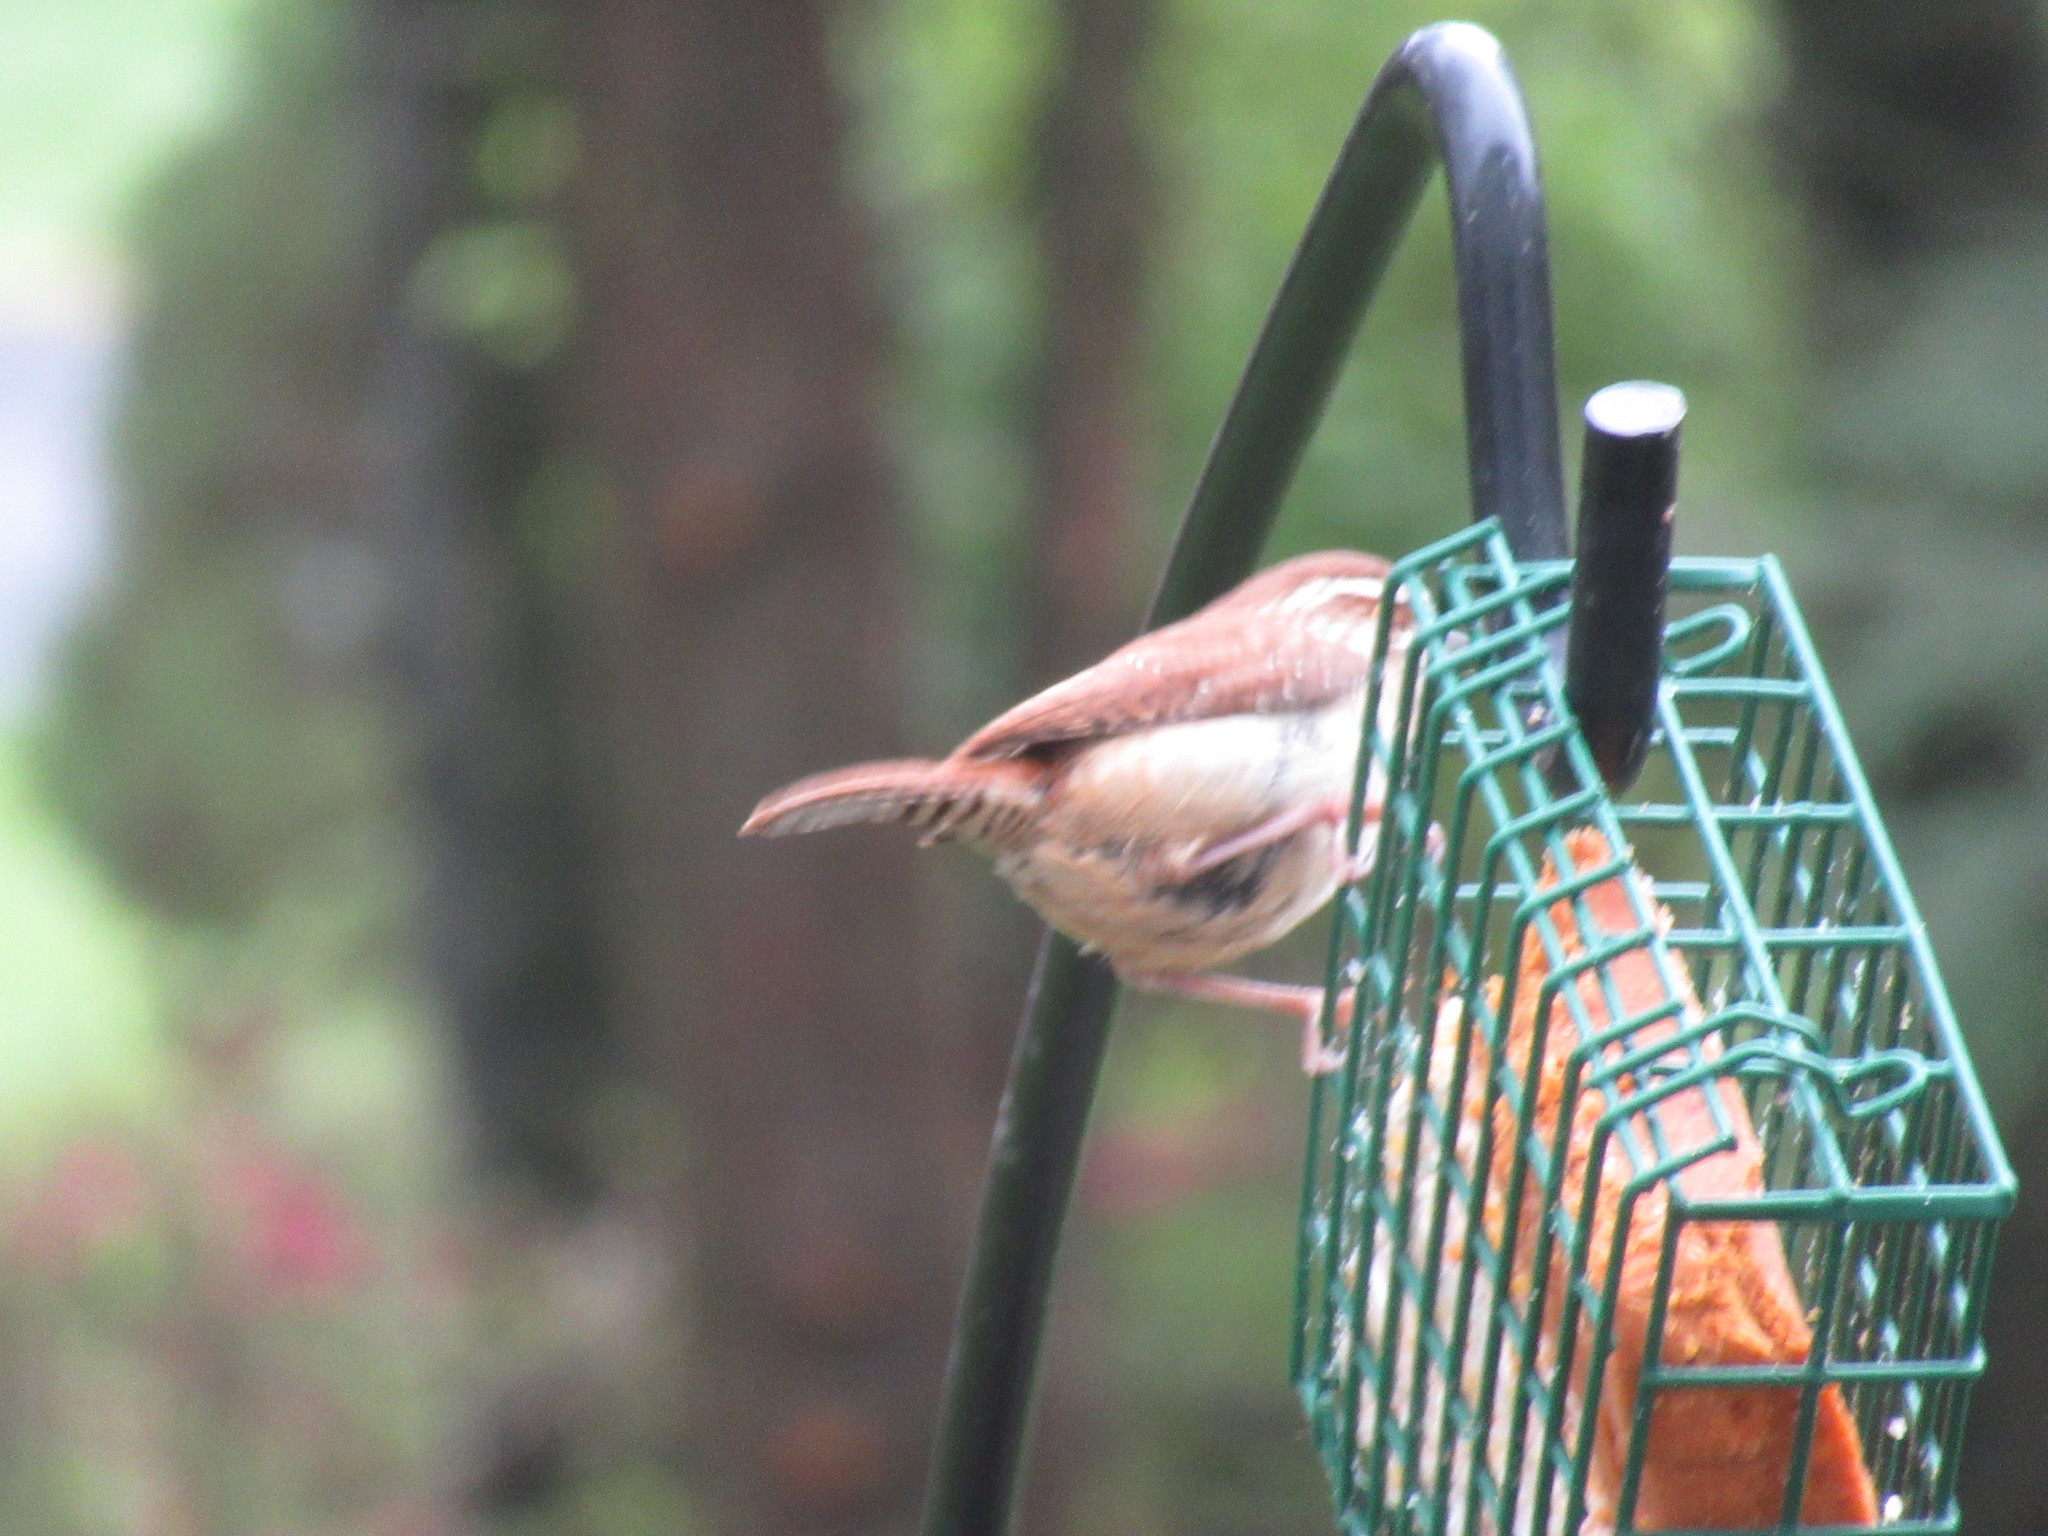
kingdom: Animalia
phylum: Chordata
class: Aves
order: Passeriformes
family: Troglodytidae
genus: Thryothorus
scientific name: Thryothorus ludovicianus
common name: Carolina wren
